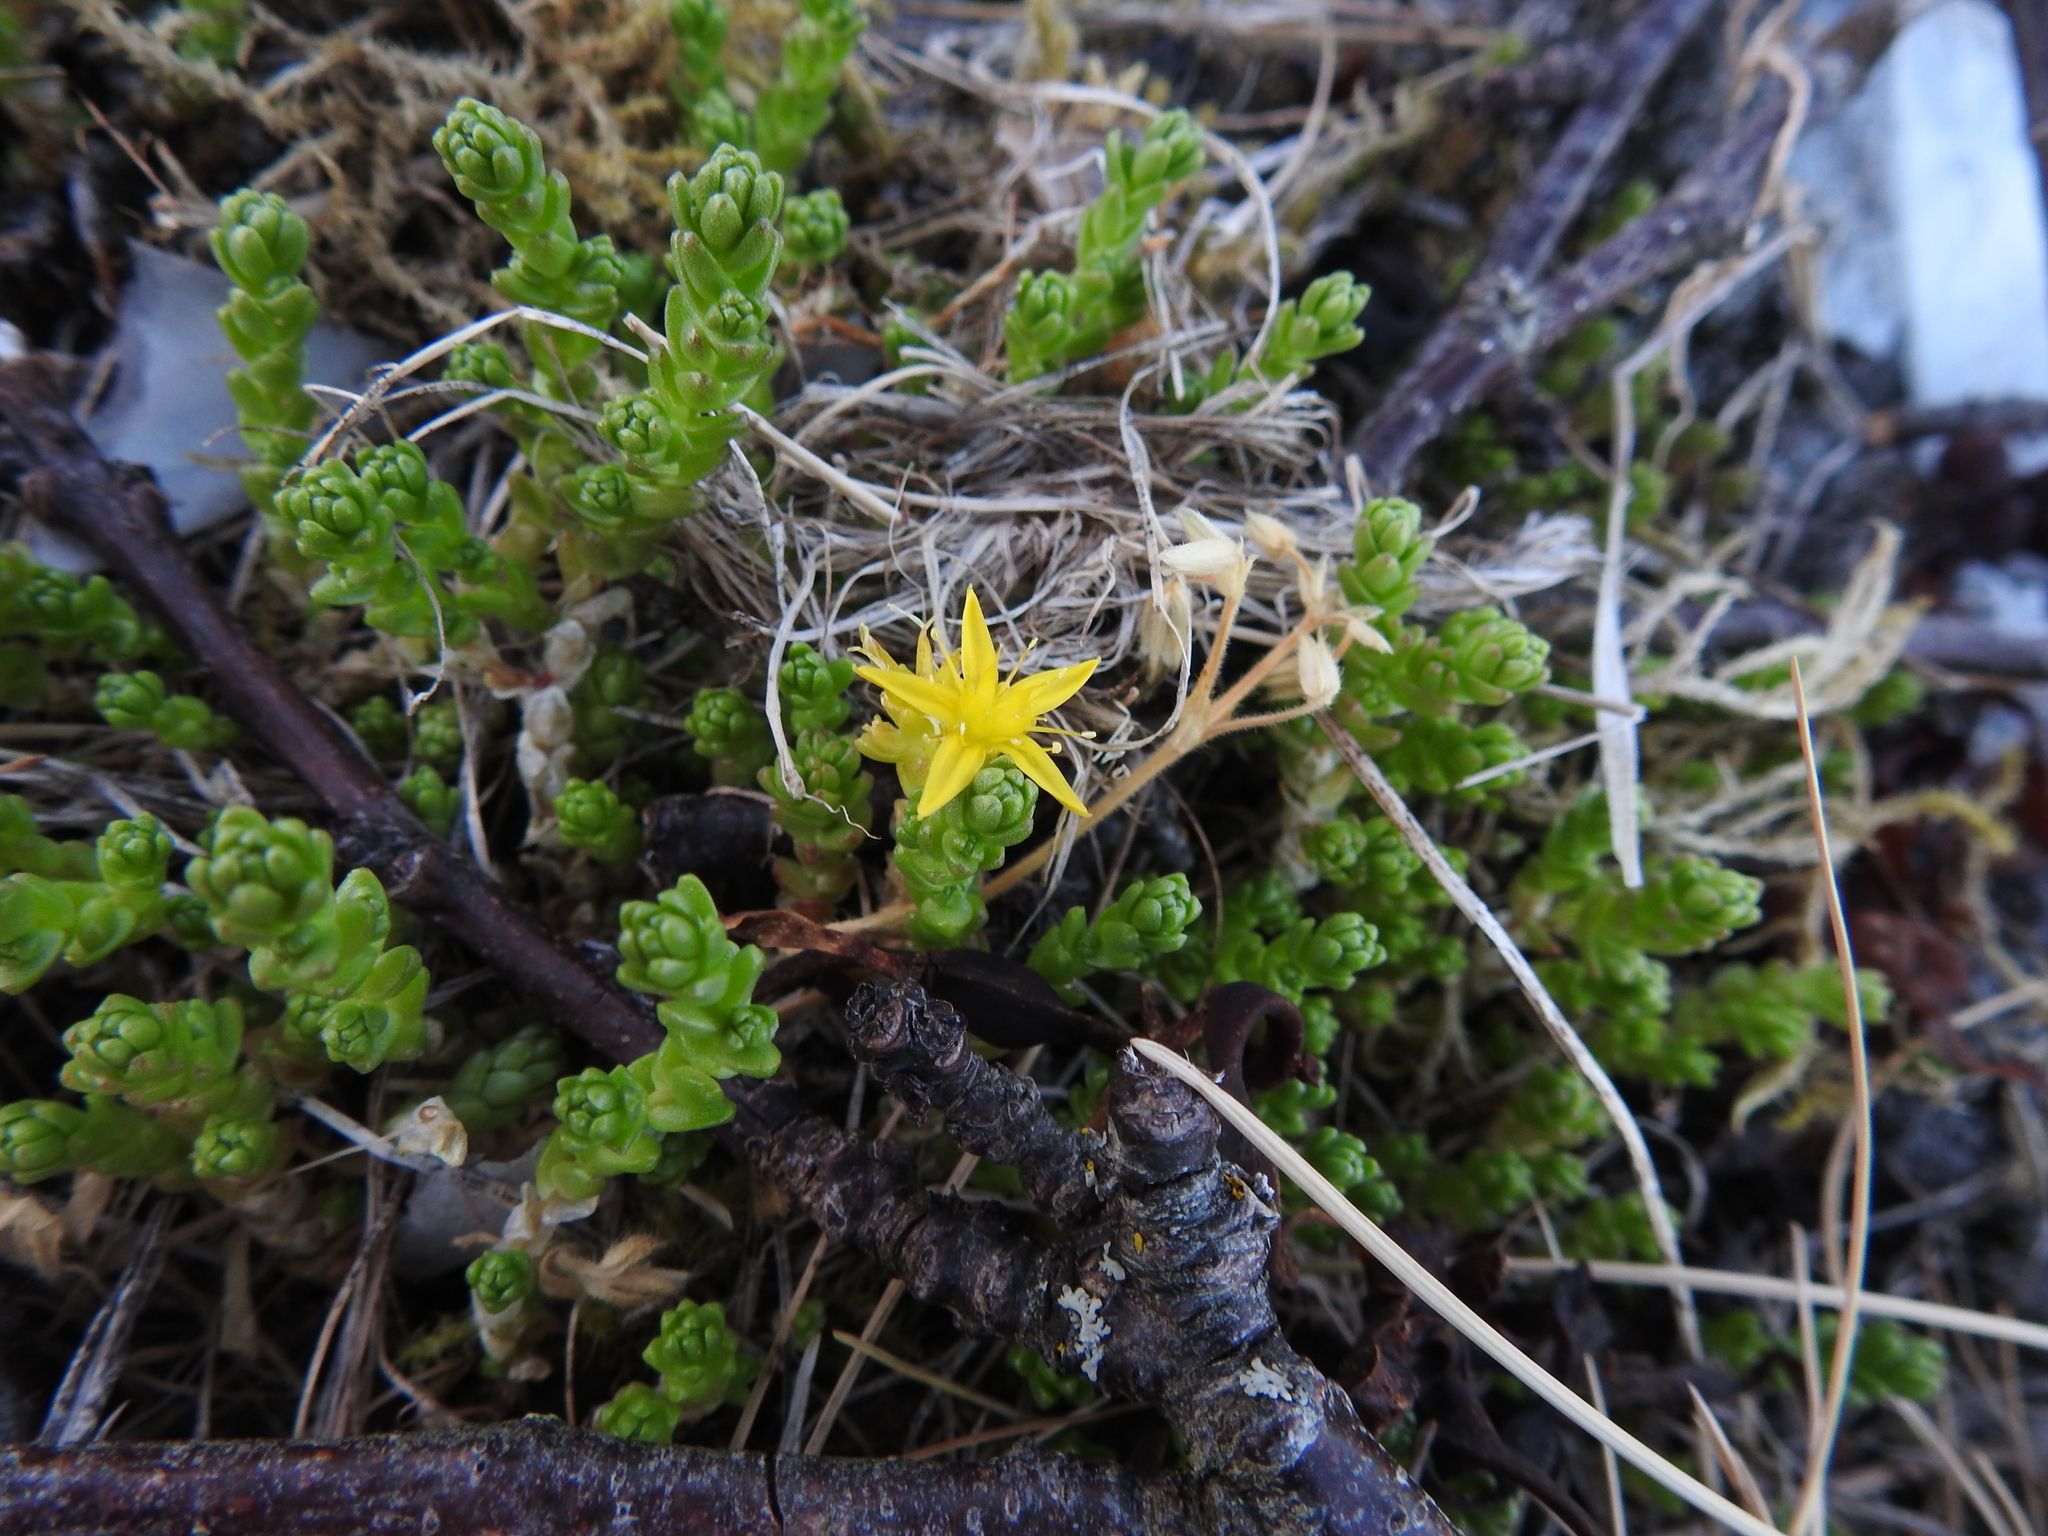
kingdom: Plantae
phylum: Tracheophyta
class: Magnoliopsida
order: Saxifragales
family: Crassulaceae
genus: Sedum
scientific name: Sedum acre
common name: Biting stonecrop
